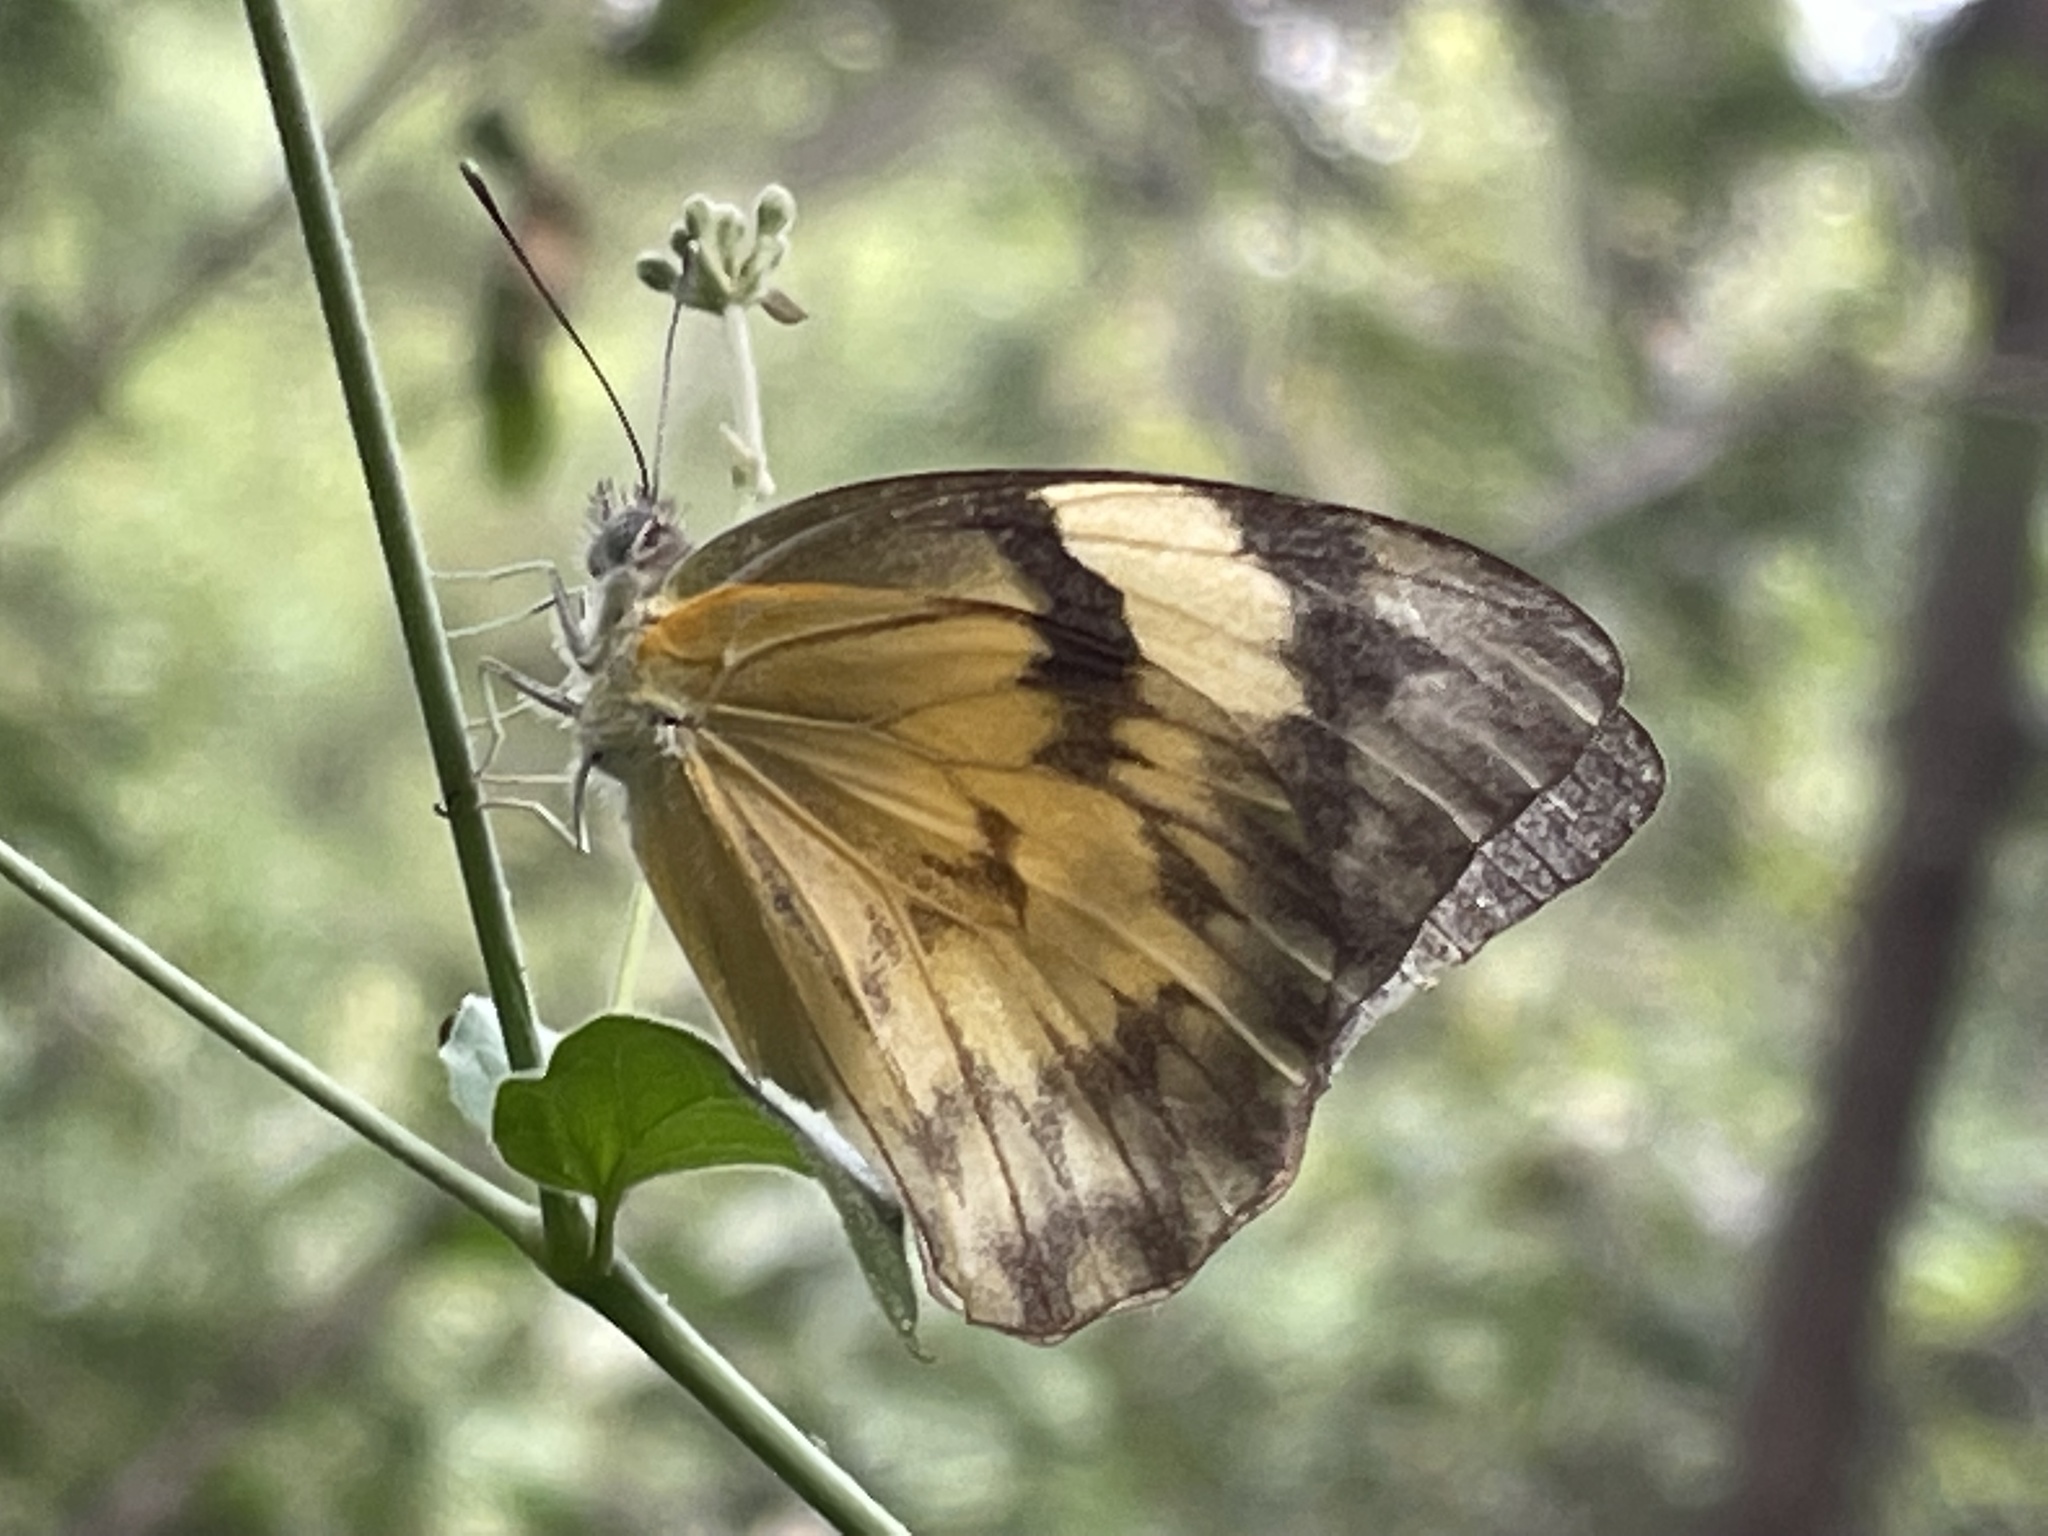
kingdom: Animalia
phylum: Arthropoda
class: Insecta
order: Lepidoptera
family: Pieridae
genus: Belenois
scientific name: Belenois gidica
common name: Pointed caper white
